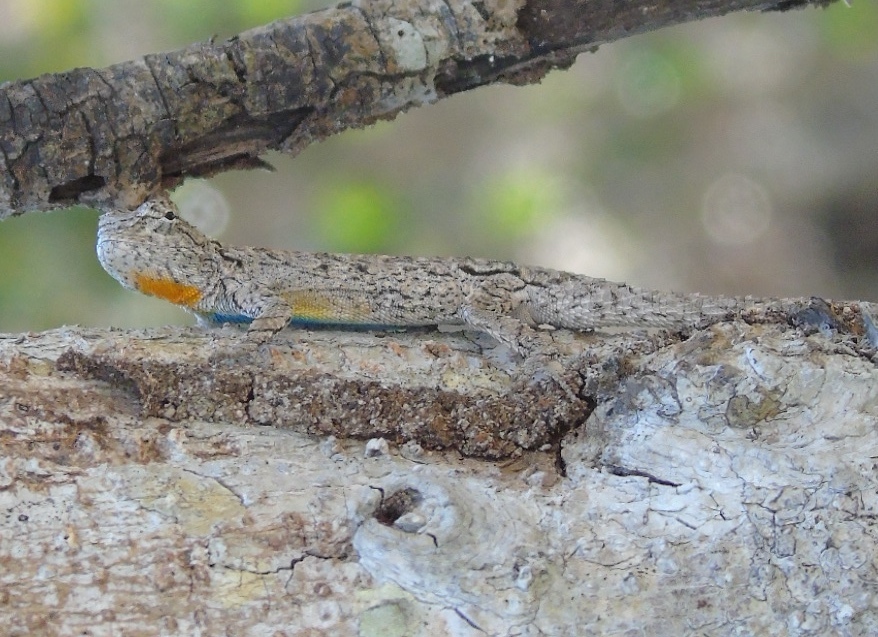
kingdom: Animalia
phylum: Chordata
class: Squamata
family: Phrynosomatidae
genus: Urosaurus
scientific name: Urosaurus bicarinatus
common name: Tropical tree lizard
